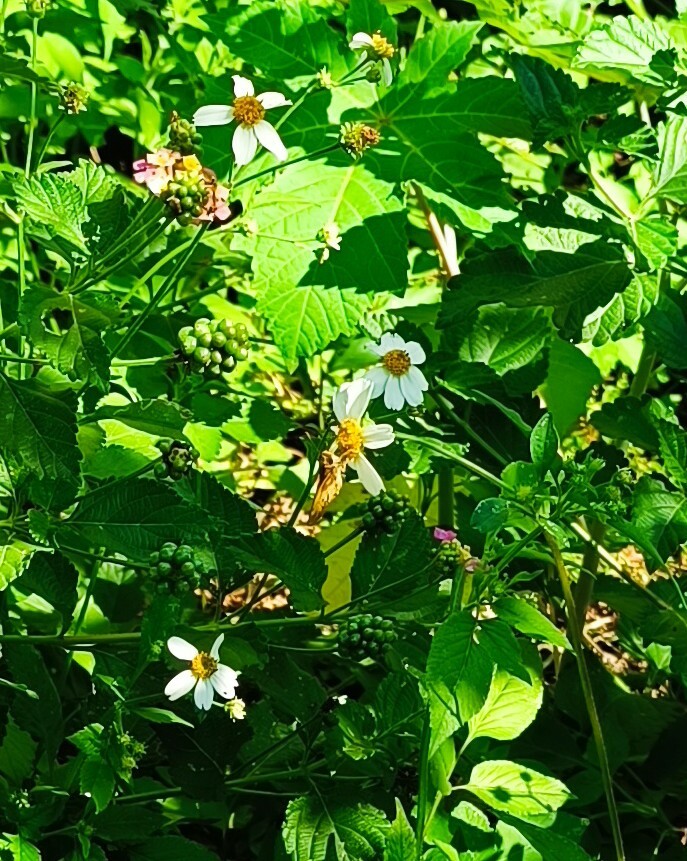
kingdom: Animalia
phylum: Arthropoda
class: Insecta
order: Lepidoptera
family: Hesperiidae
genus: Lon
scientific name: Lon zabulon
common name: Zabulon skipper
